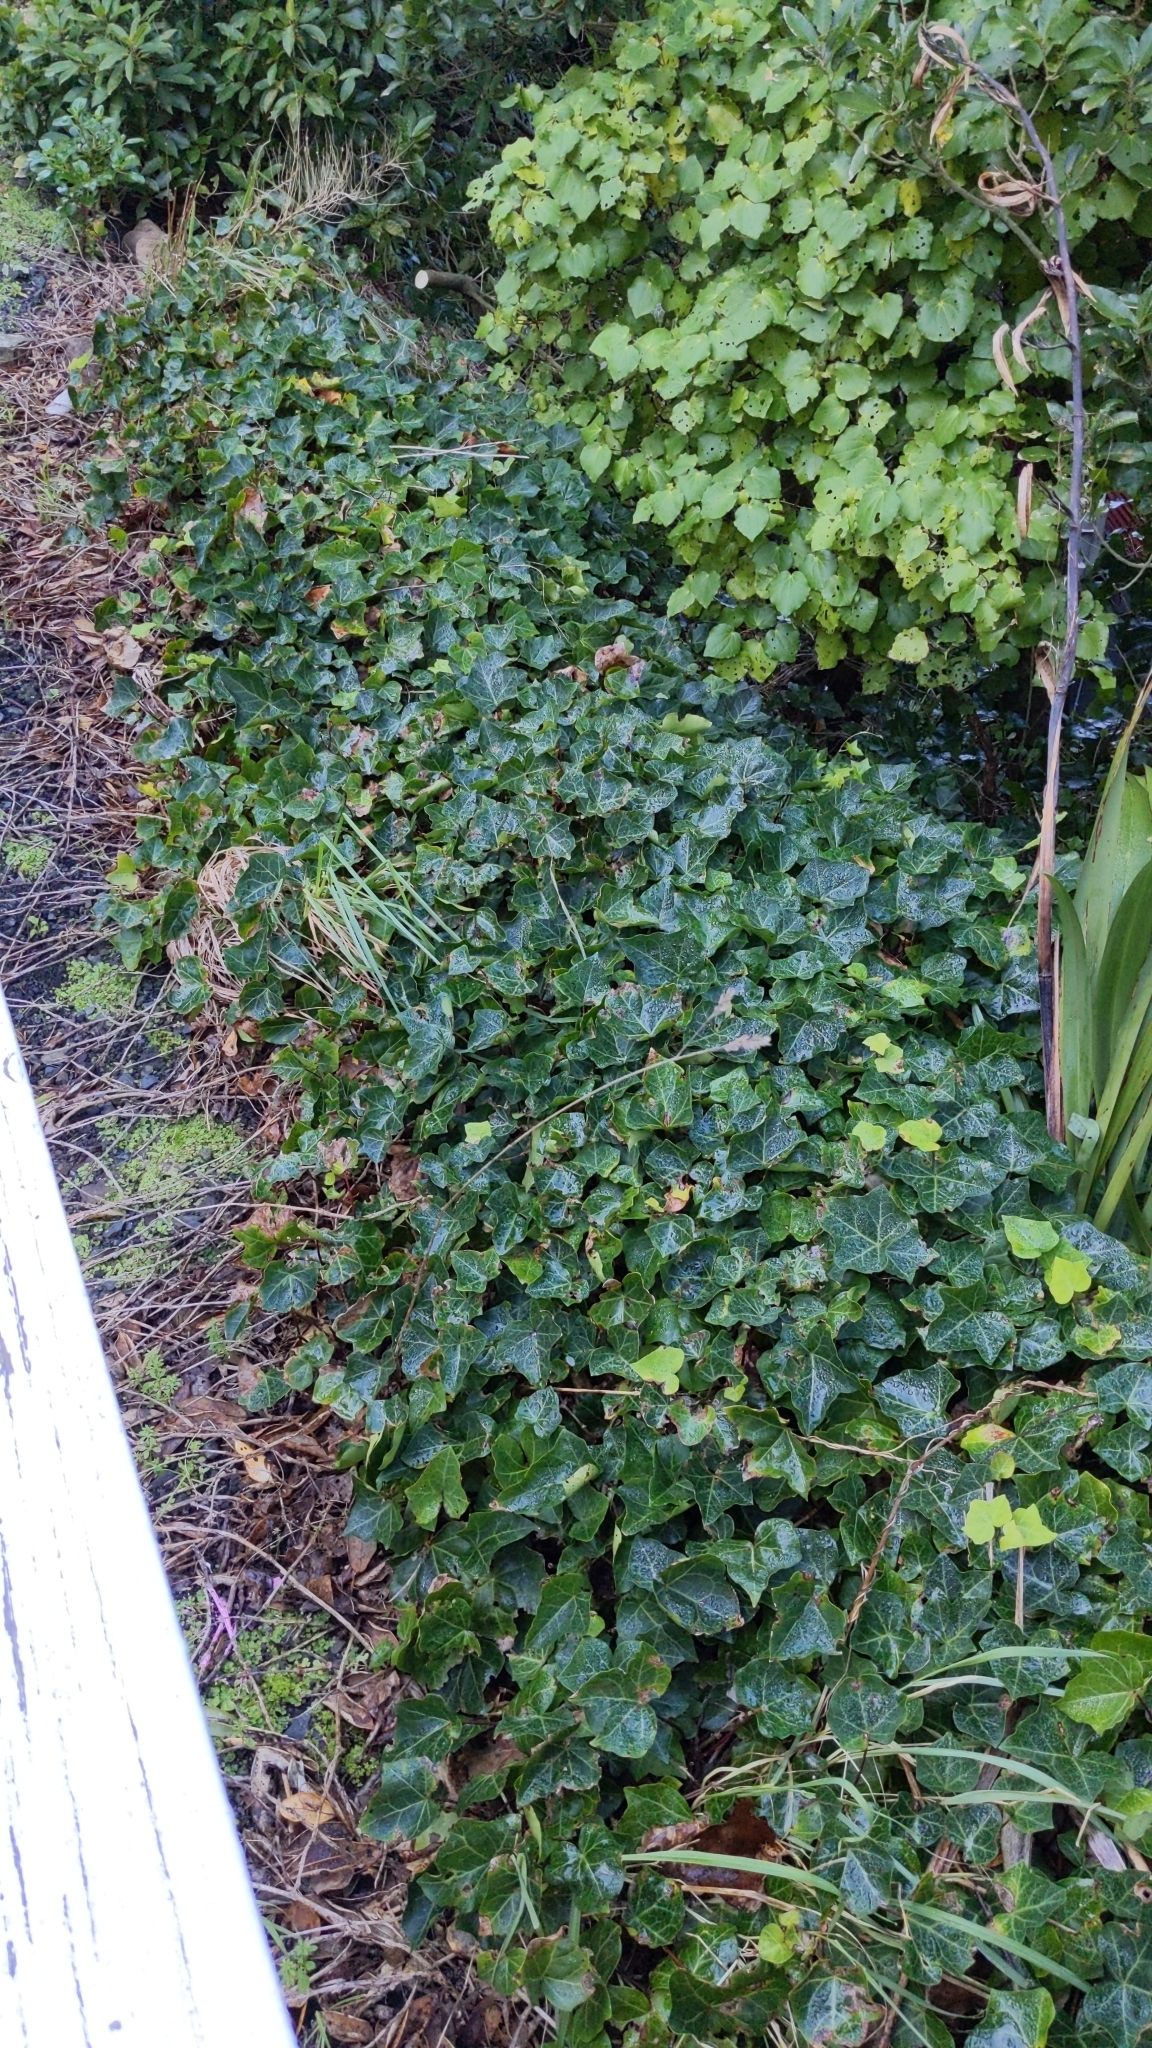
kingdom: Plantae
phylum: Tracheophyta
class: Magnoliopsida
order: Apiales
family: Araliaceae
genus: Hedera
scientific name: Hedera helix
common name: Ivy
